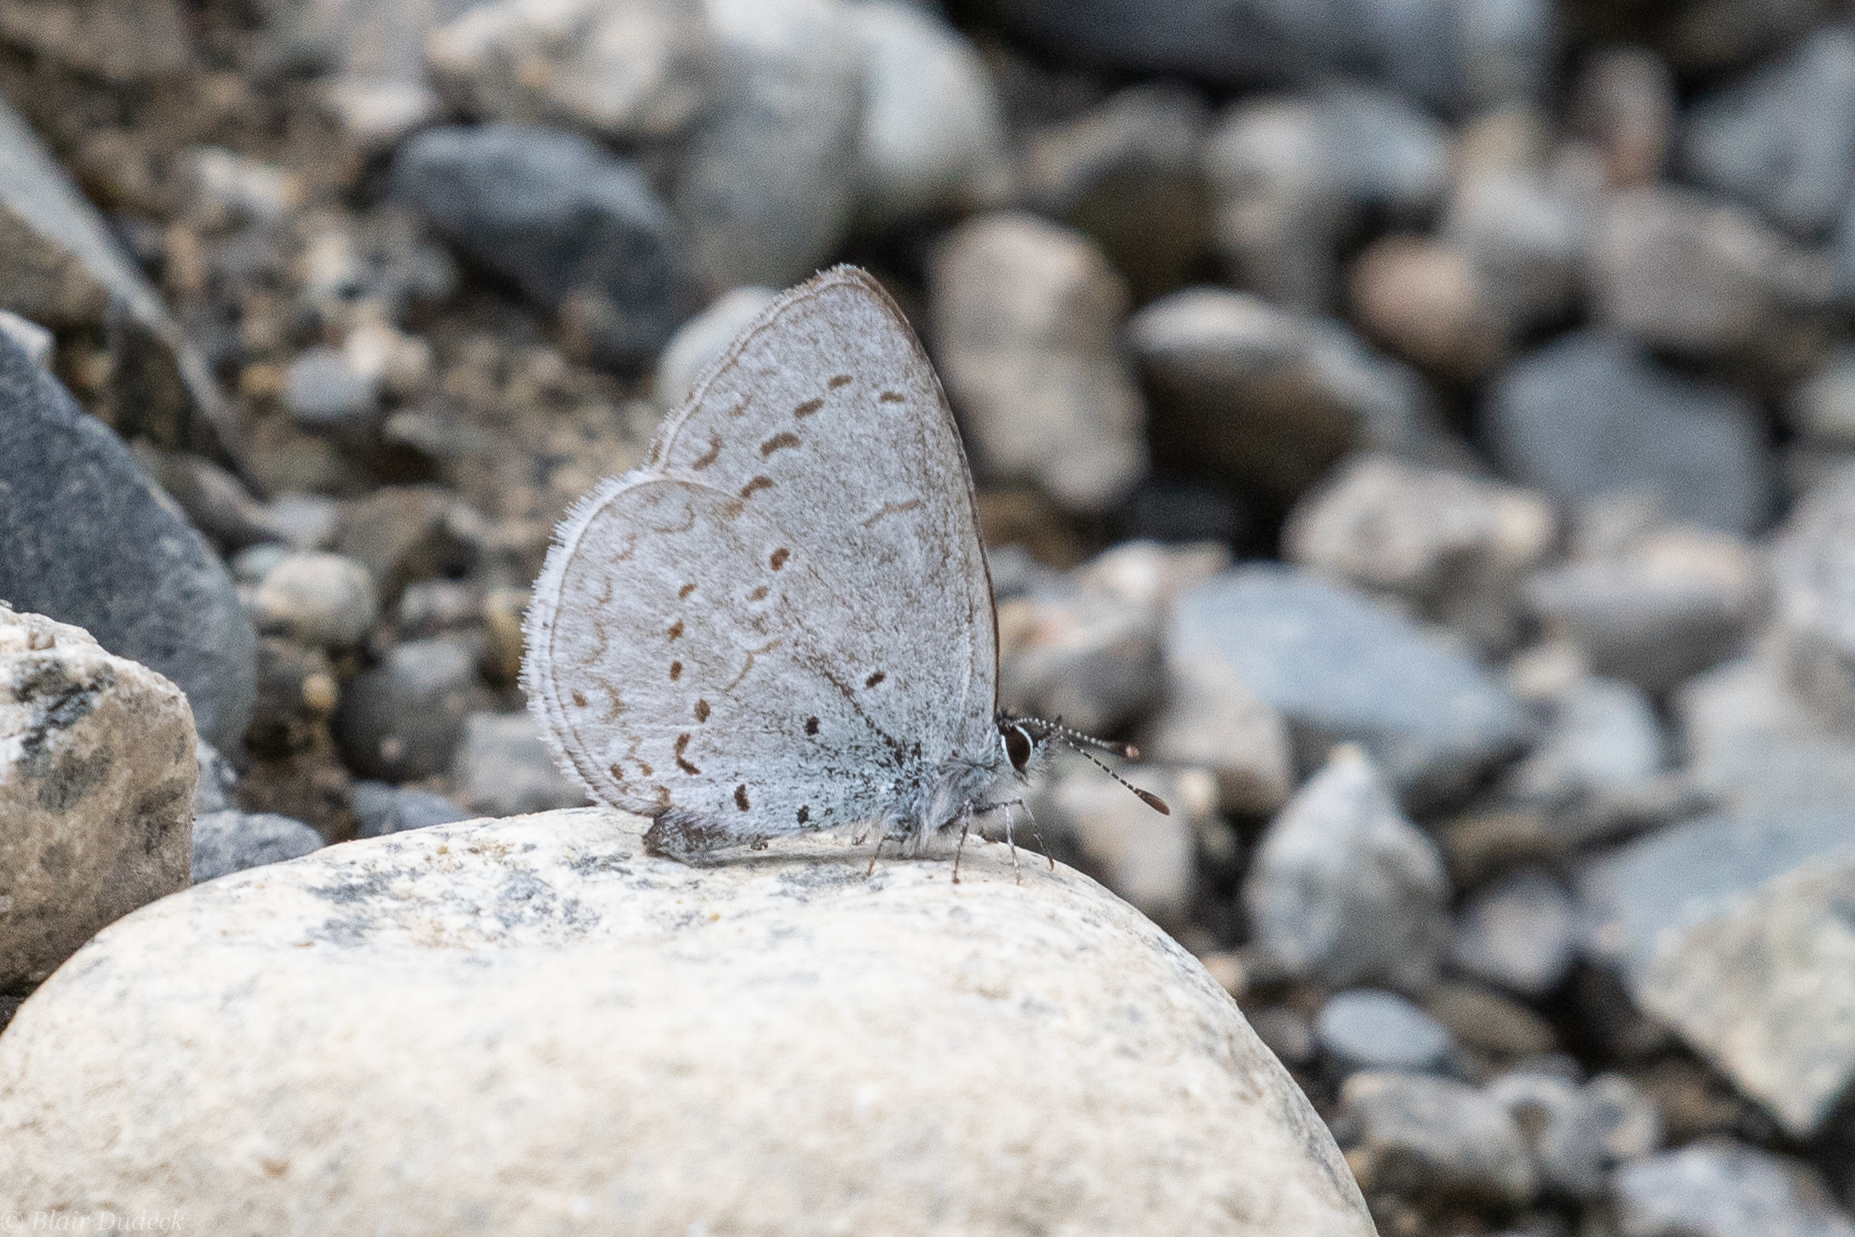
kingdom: Animalia
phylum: Arthropoda
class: Insecta
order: Lepidoptera
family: Lycaenidae
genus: Celastrina
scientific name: Celastrina ladon
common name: Spring azure
